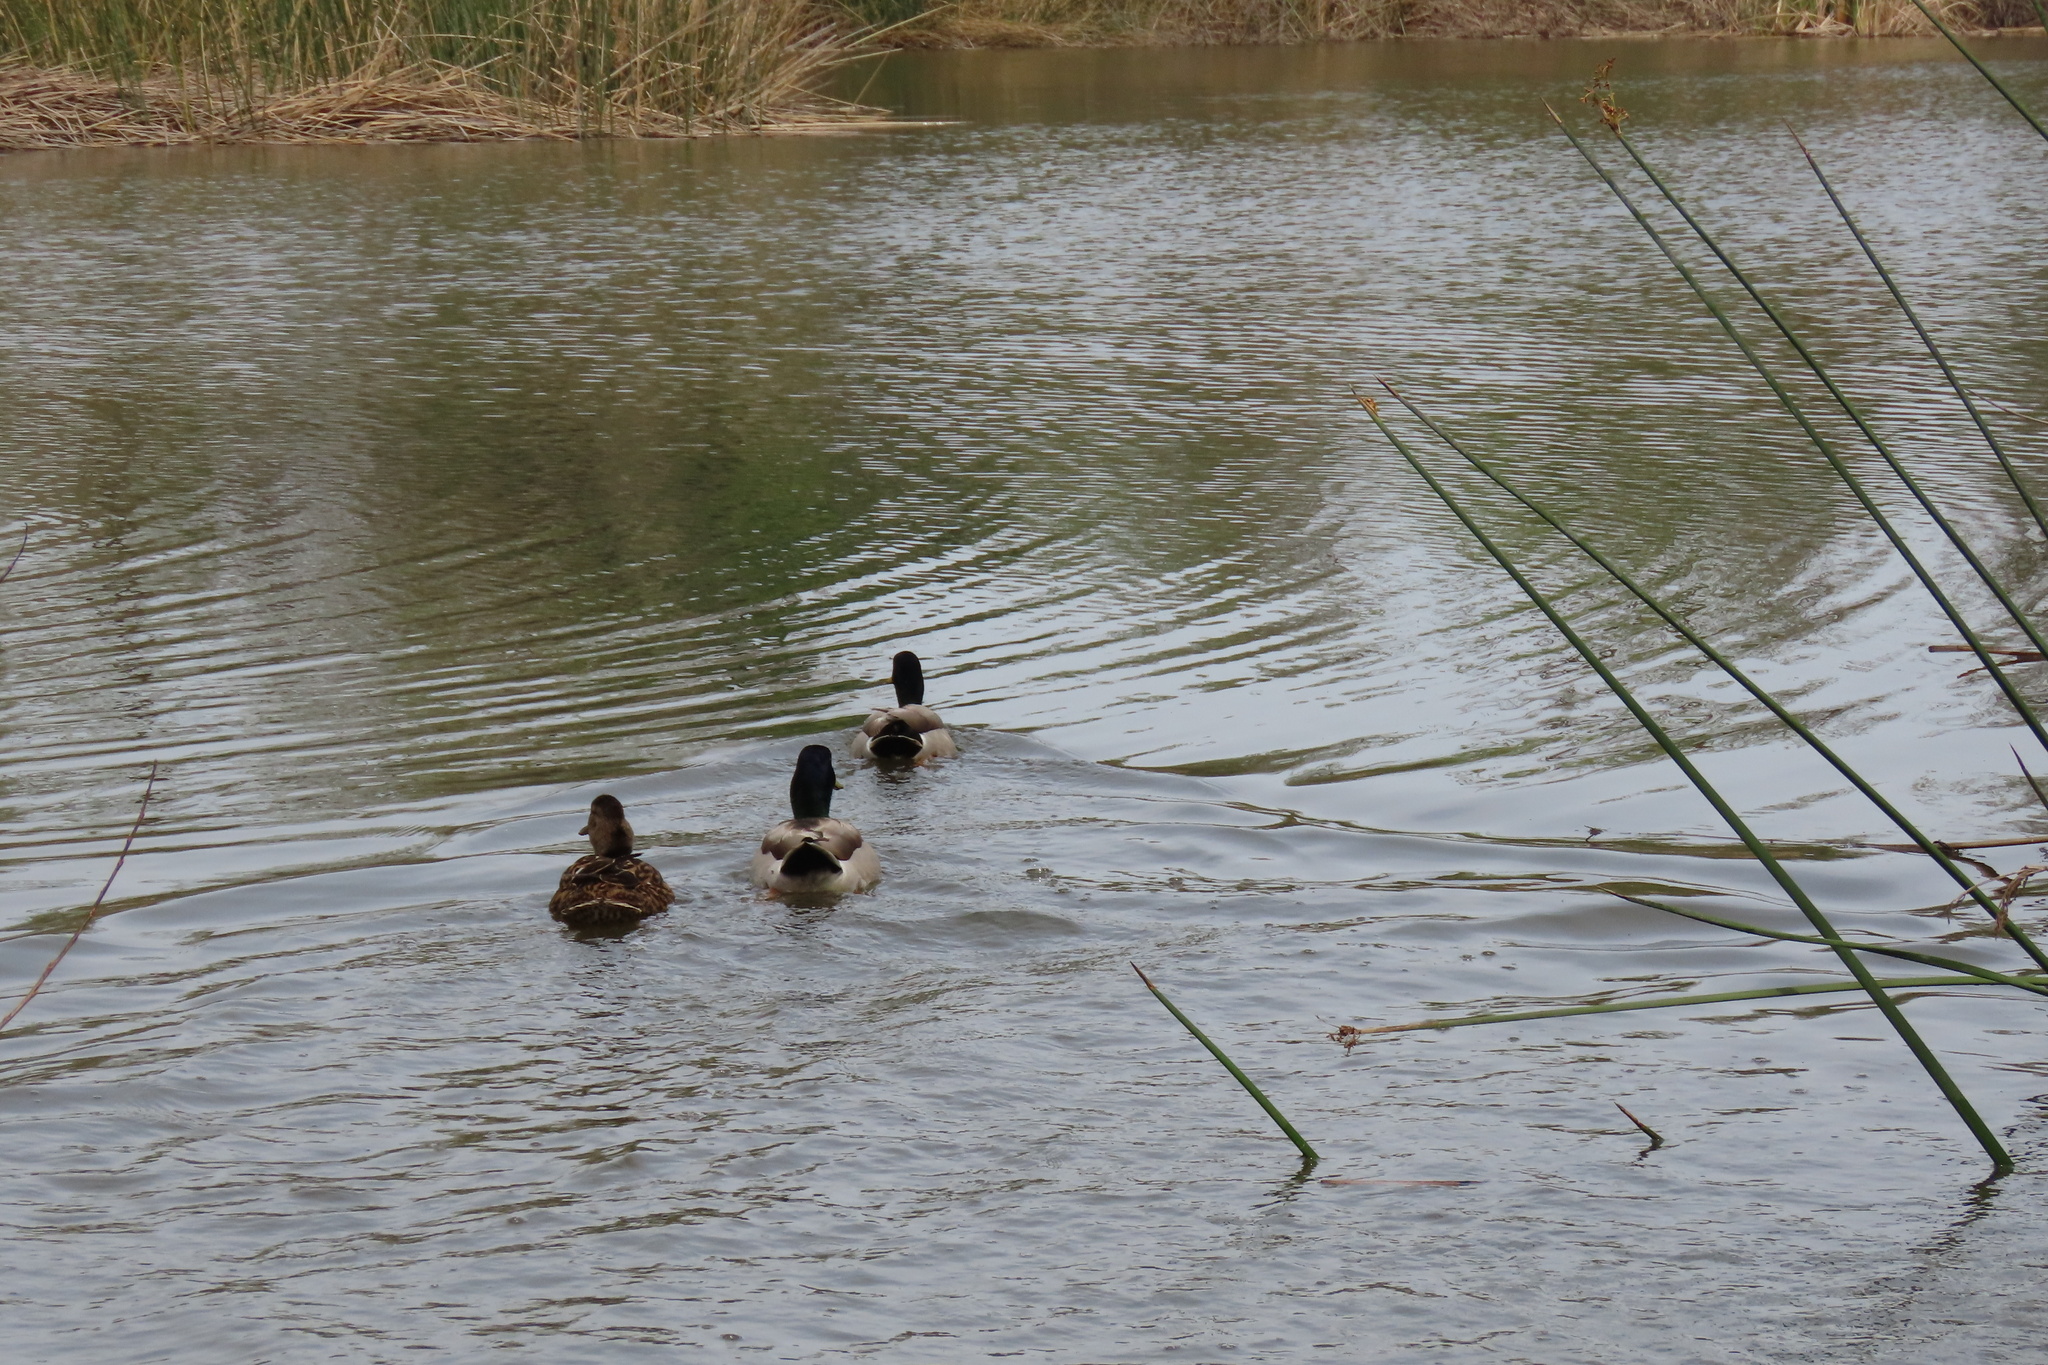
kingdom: Animalia
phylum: Chordata
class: Aves
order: Anseriformes
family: Anatidae
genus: Anas
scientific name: Anas platyrhynchos
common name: Mallard
